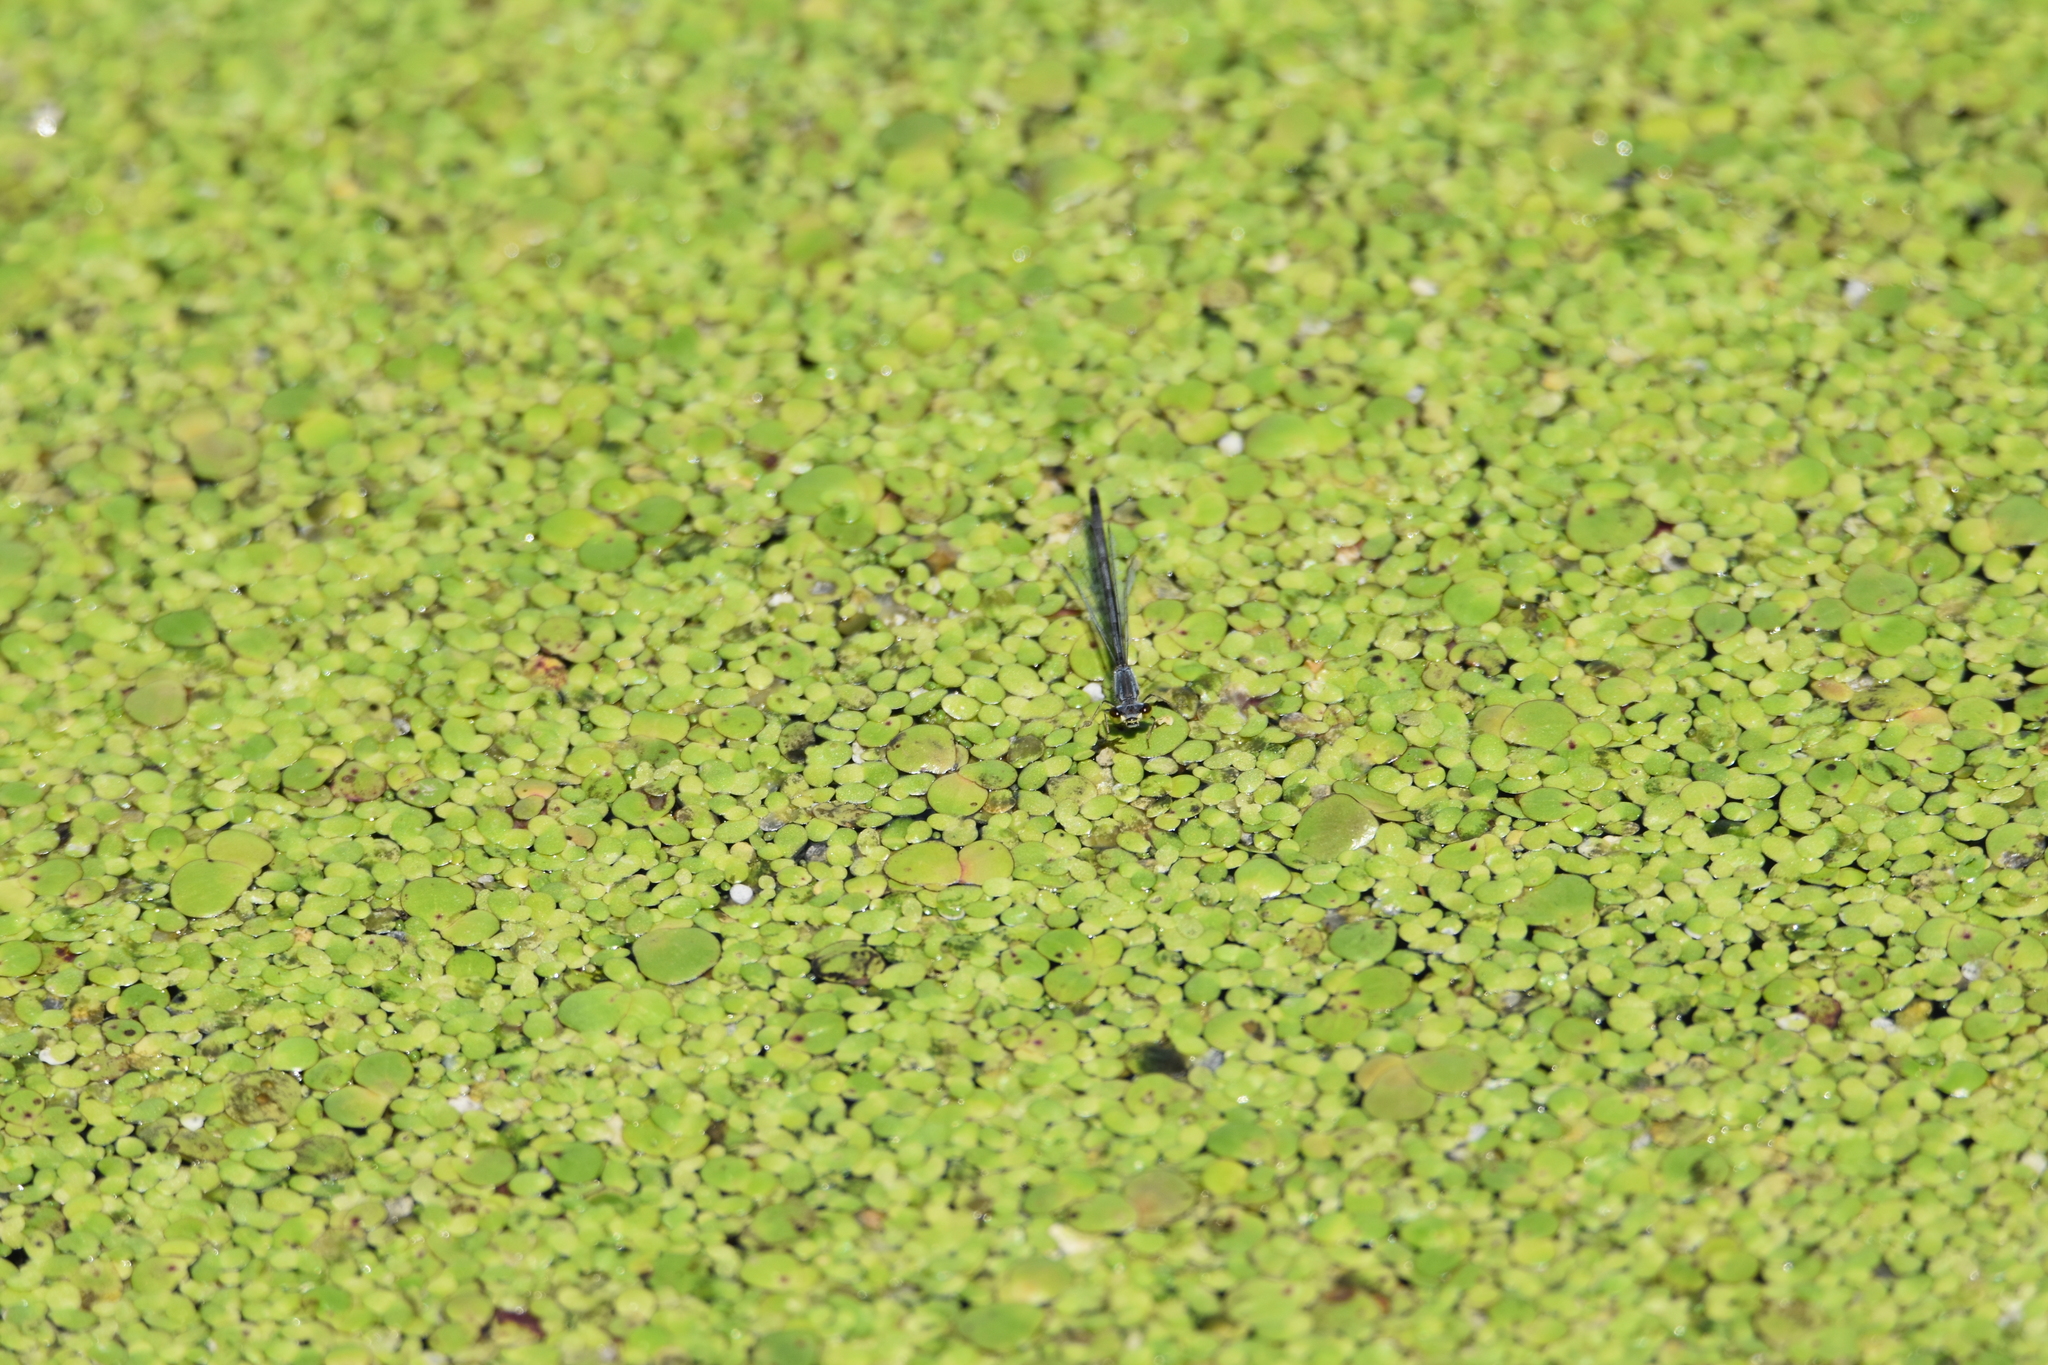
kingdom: Animalia
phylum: Arthropoda
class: Insecta
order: Odonata
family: Coenagrionidae
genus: Ischnura
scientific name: Ischnura posita
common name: Fragile forktail
